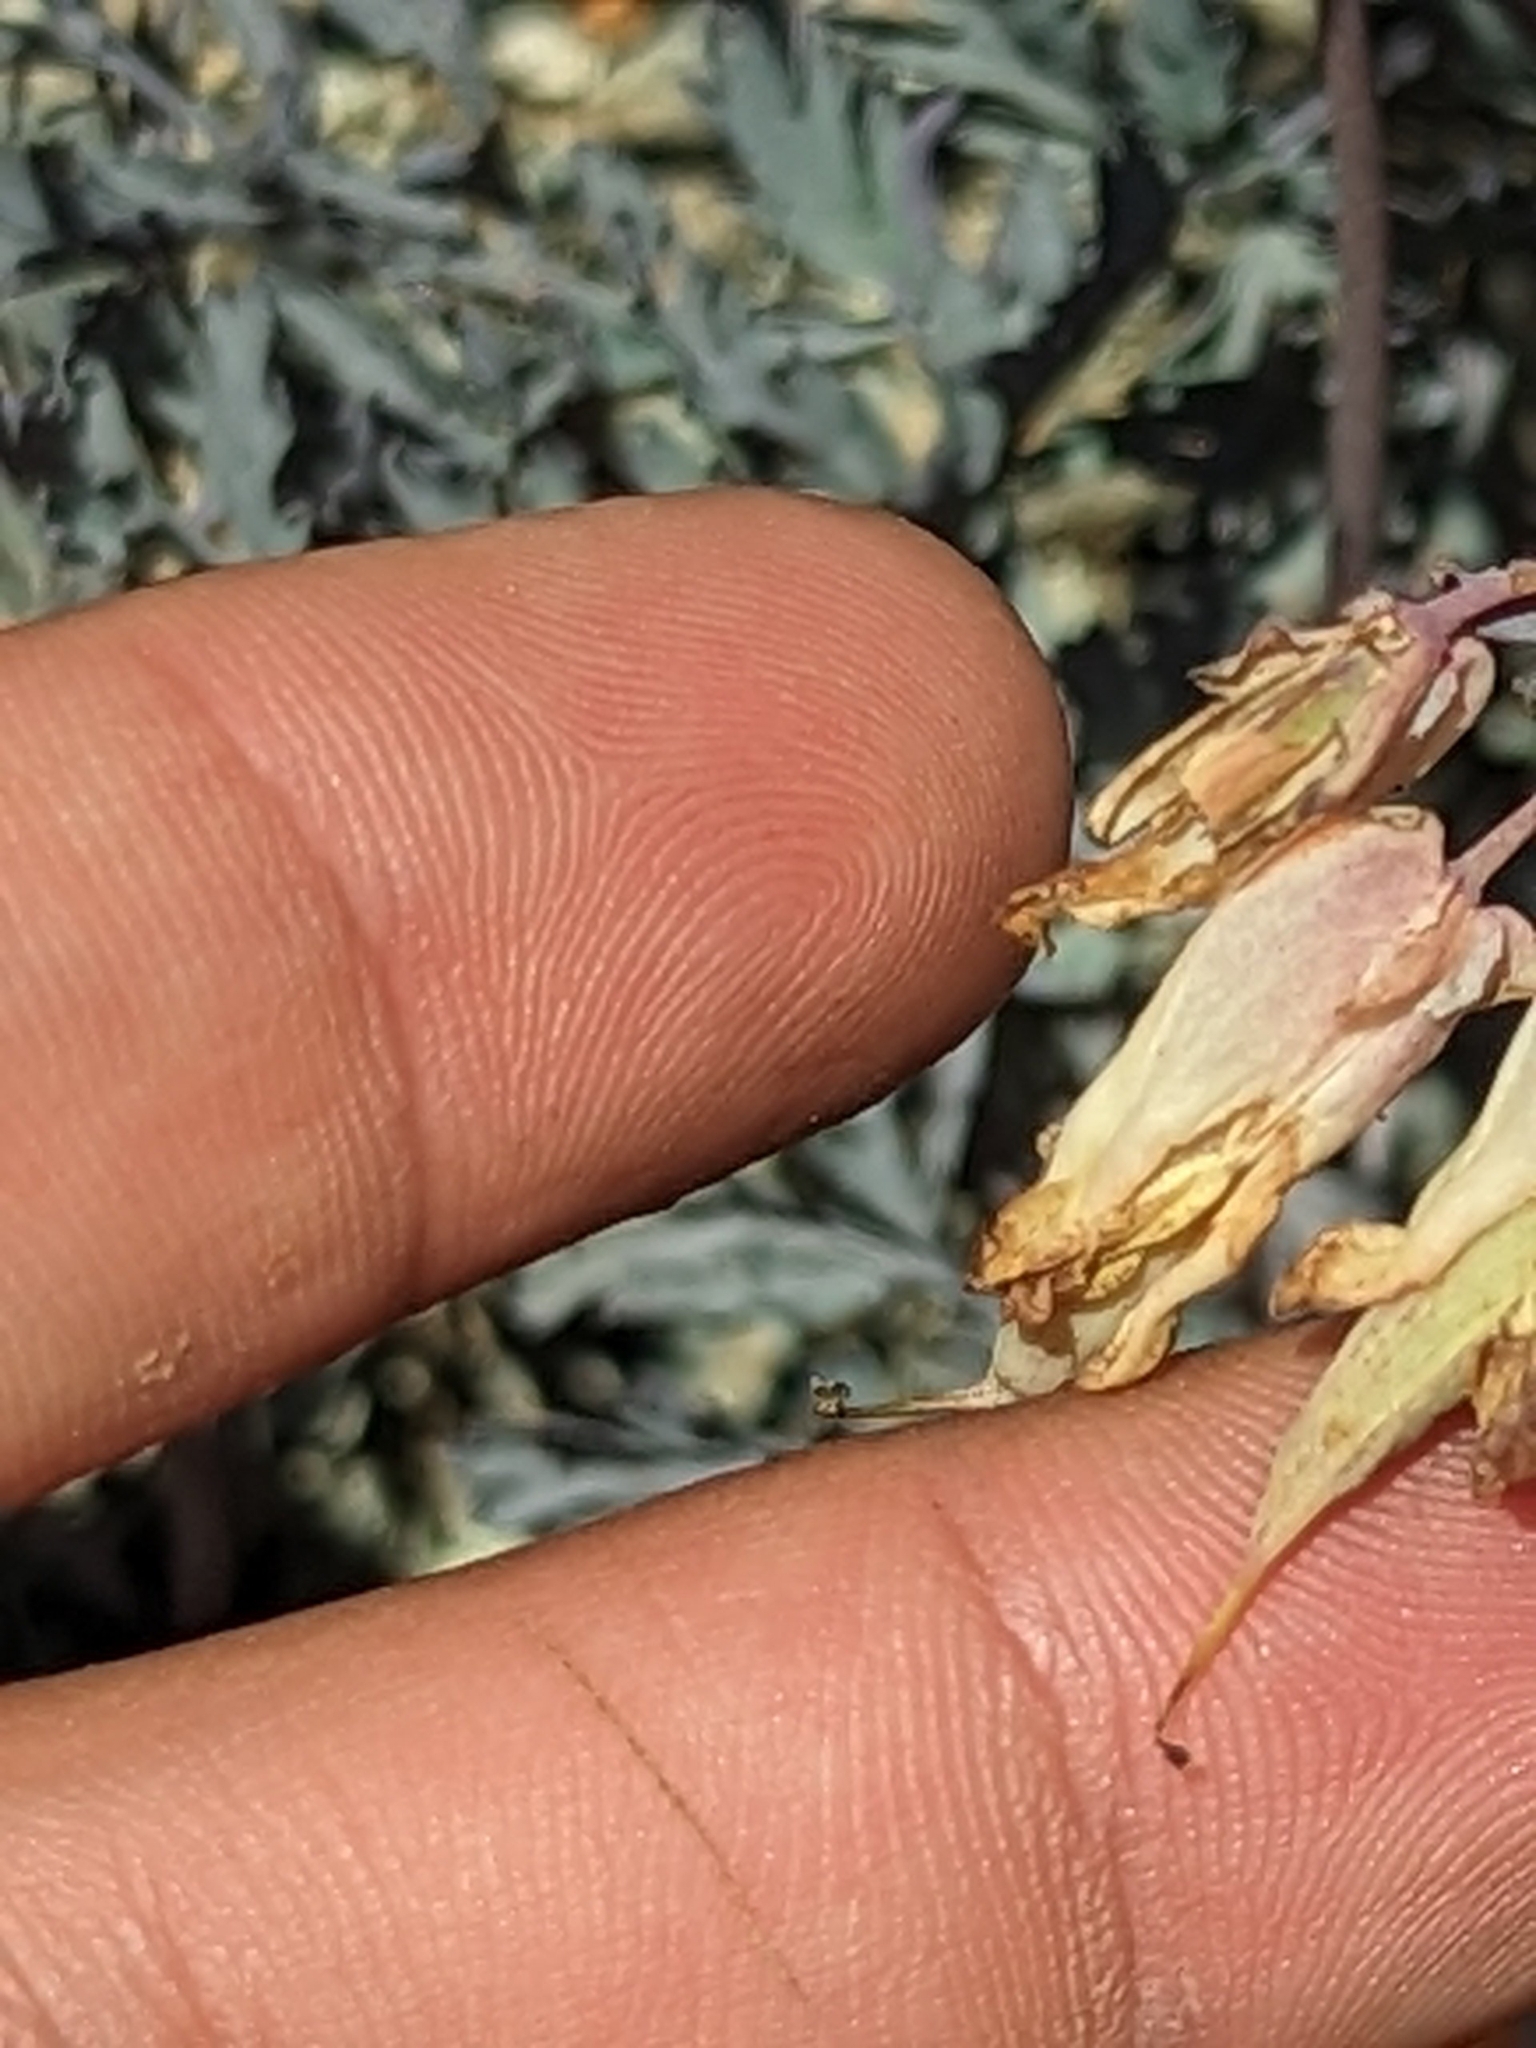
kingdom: Plantae
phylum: Tracheophyta
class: Magnoliopsida
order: Ranunculales
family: Papaveraceae
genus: Dicentra
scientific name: Dicentra formosa
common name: Bleeding-heart
